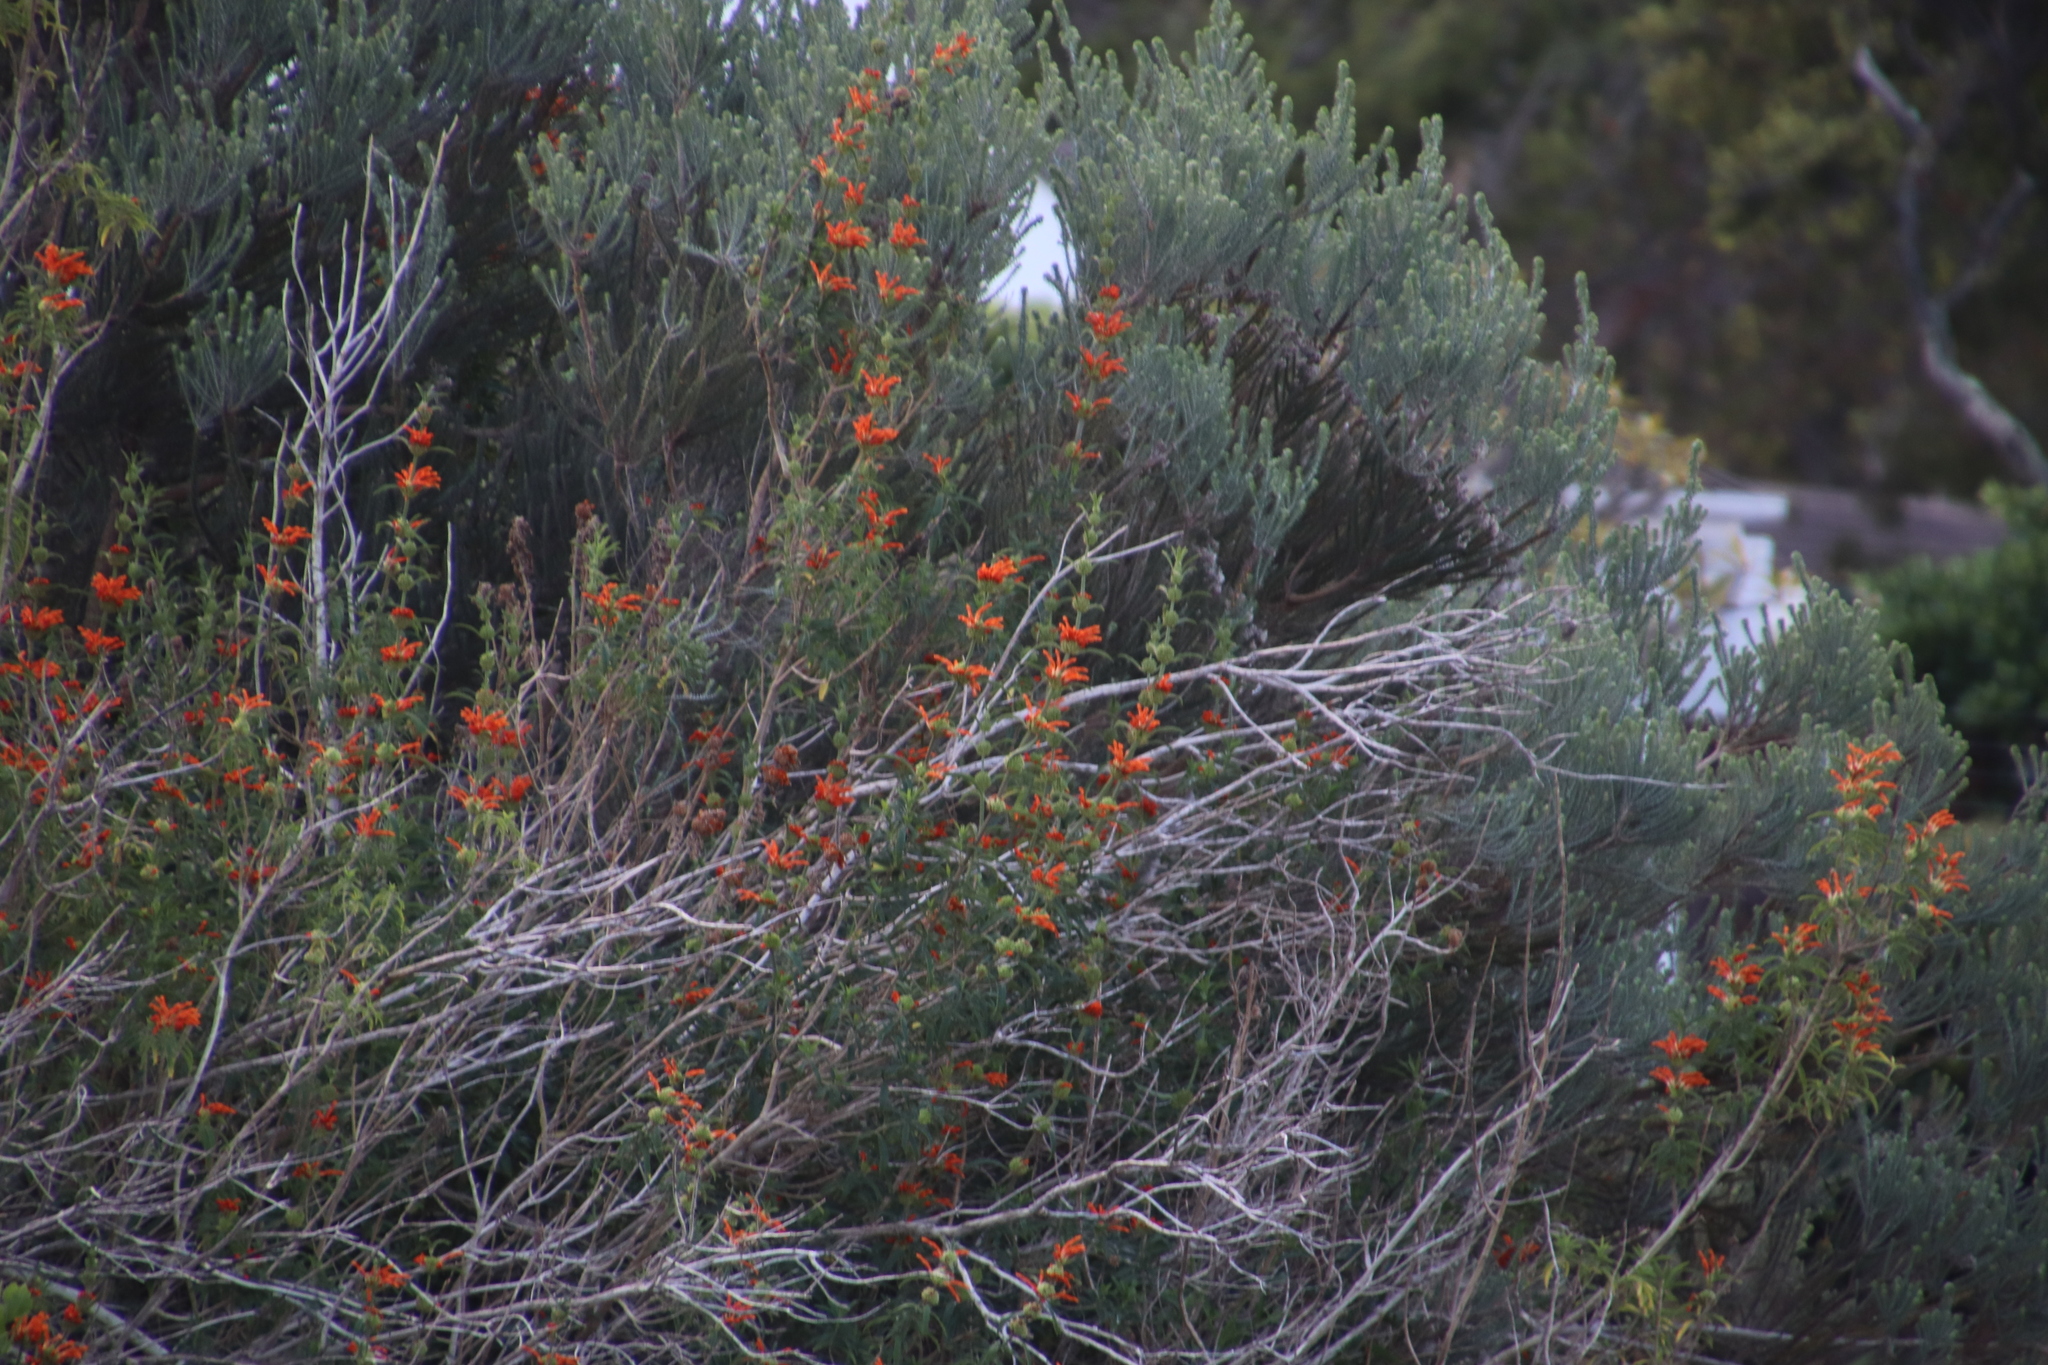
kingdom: Plantae
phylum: Tracheophyta
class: Magnoliopsida
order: Lamiales
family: Lamiaceae
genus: Leonotis
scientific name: Leonotis leonurus
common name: Lion's ear
